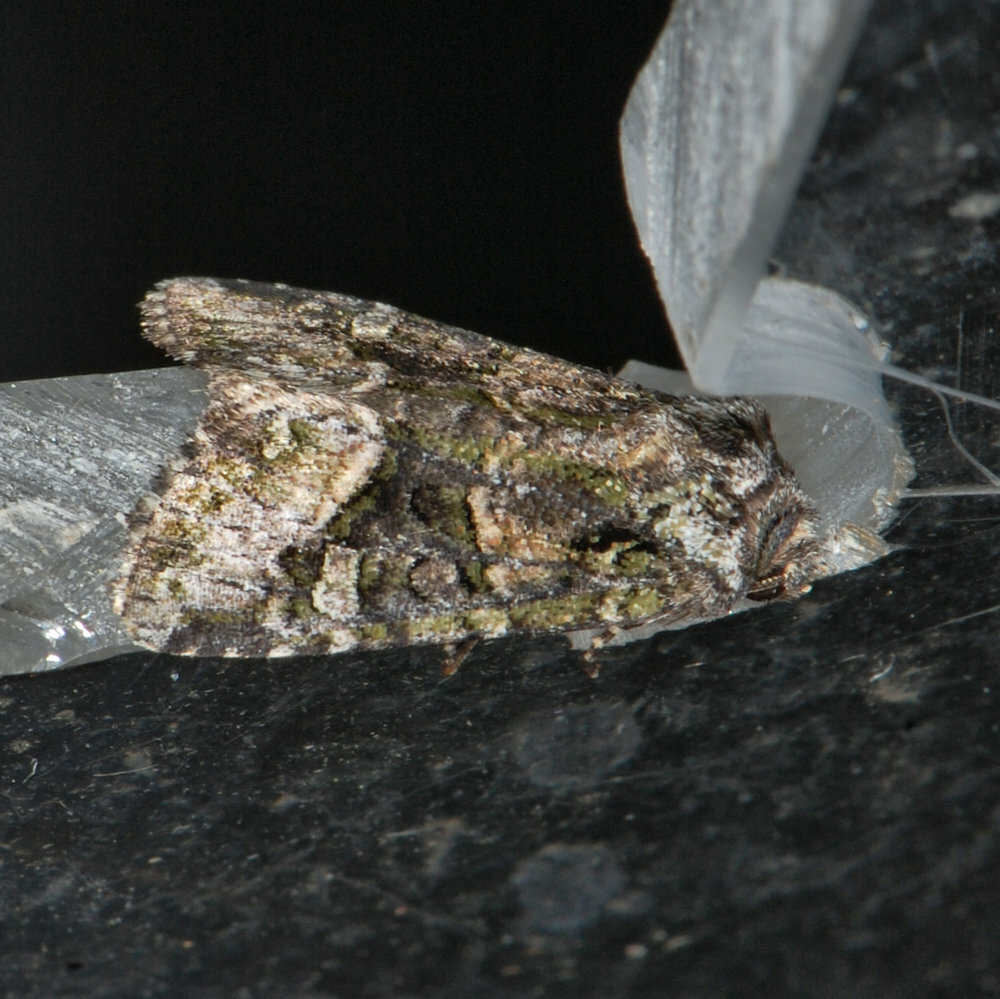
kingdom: Animalia
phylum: Arthropoda
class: Insecta
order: Lepidoptera
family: Noctuidae
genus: Lacinipolia
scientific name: Lacinipolia olivacea
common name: Olive arches moth
